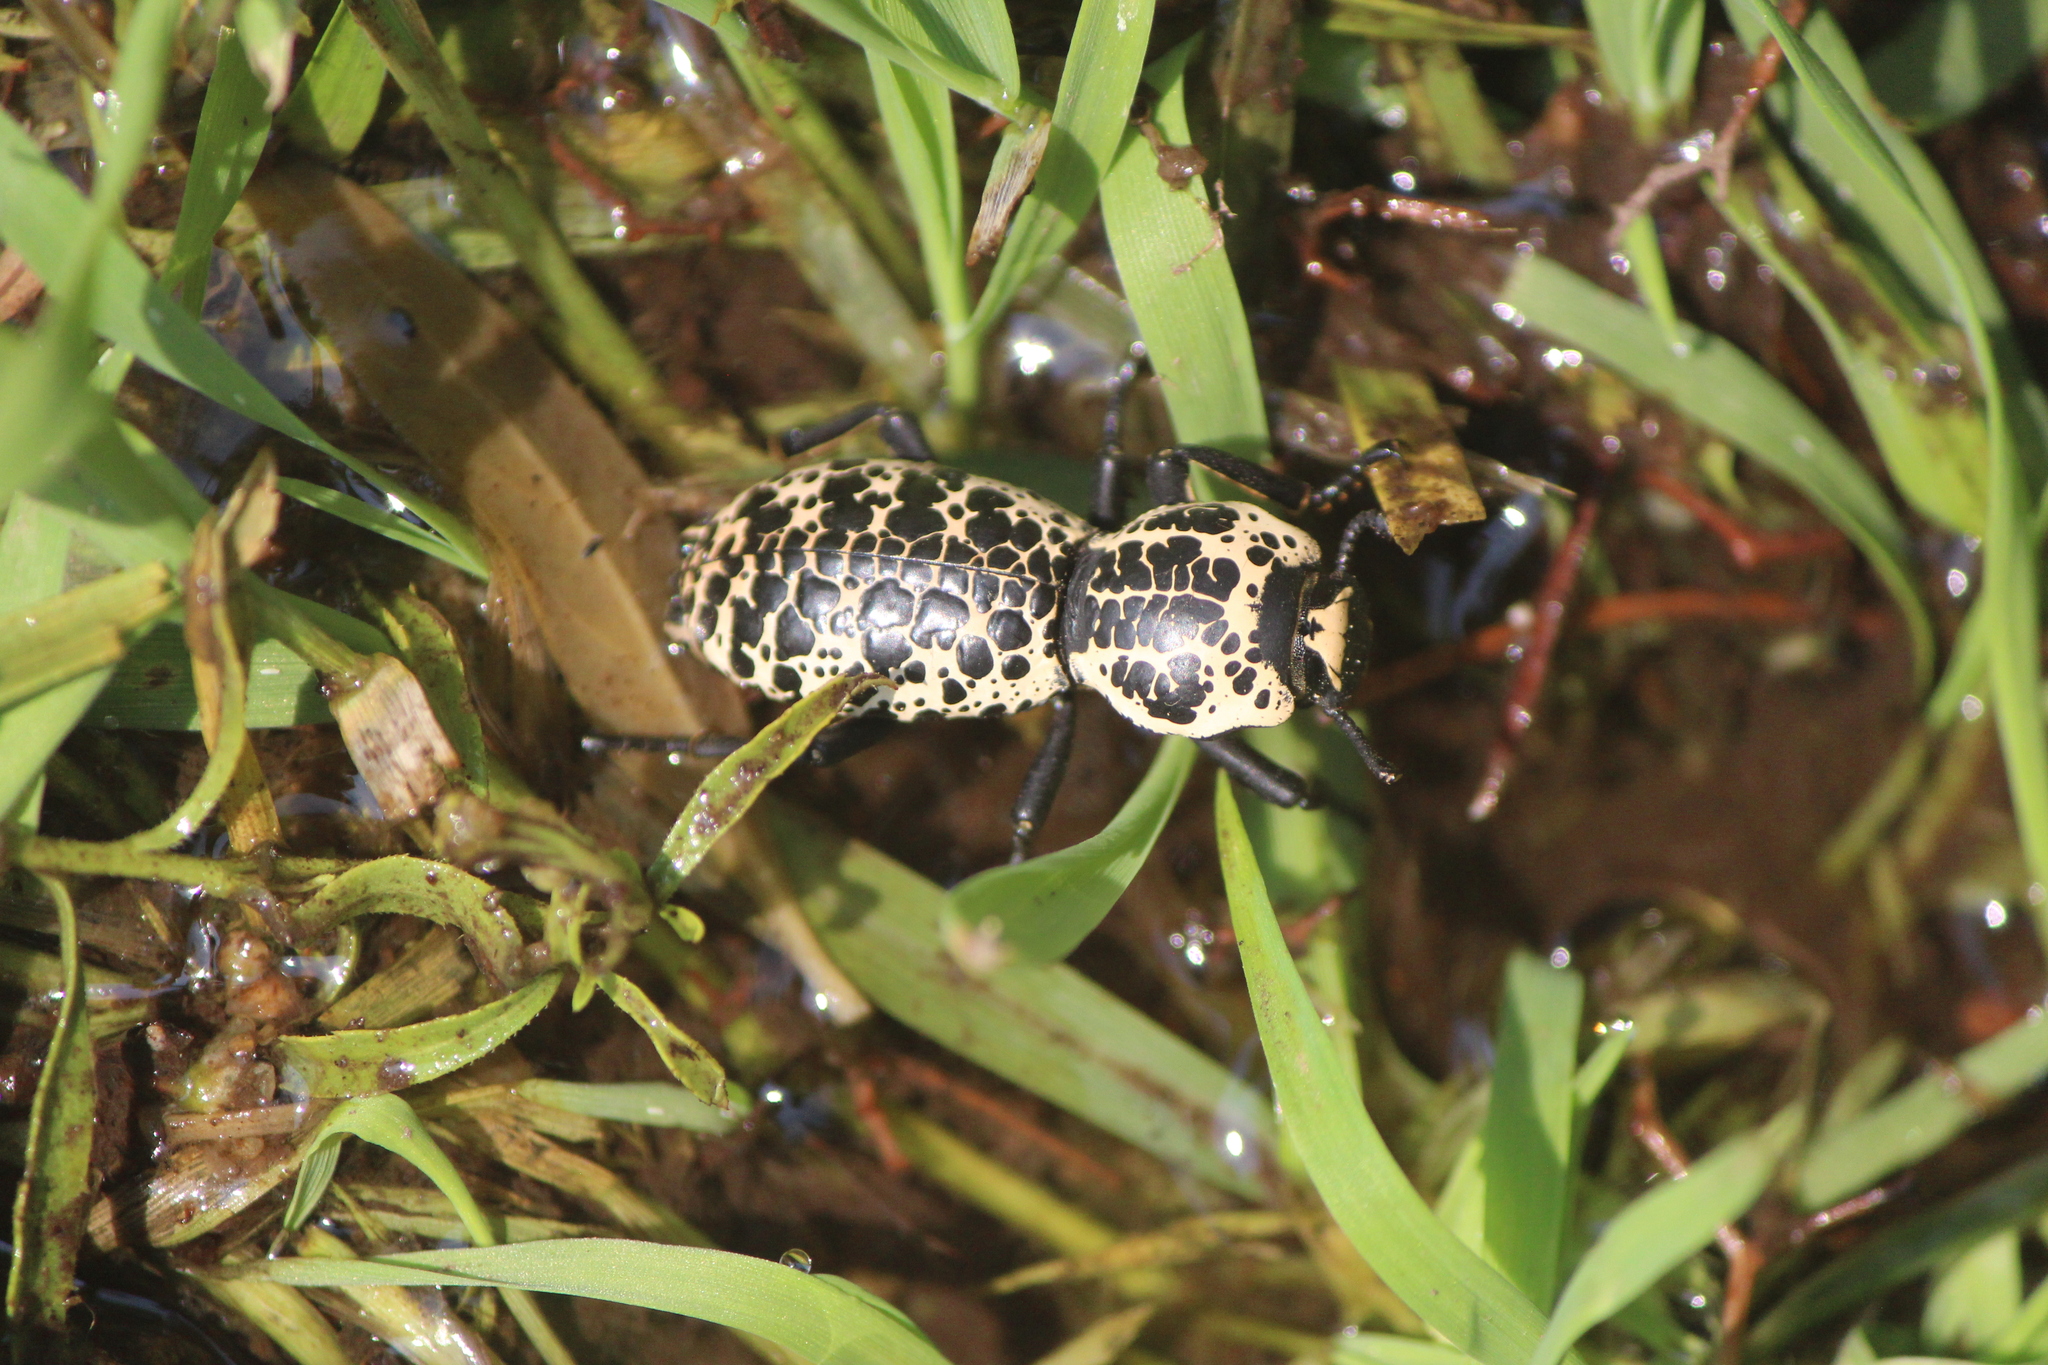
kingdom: Animalia
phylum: Arthropoda
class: Insecta
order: Coleoptera
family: Zopheridae
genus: Zopherus
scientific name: Zopherus nodulosus
